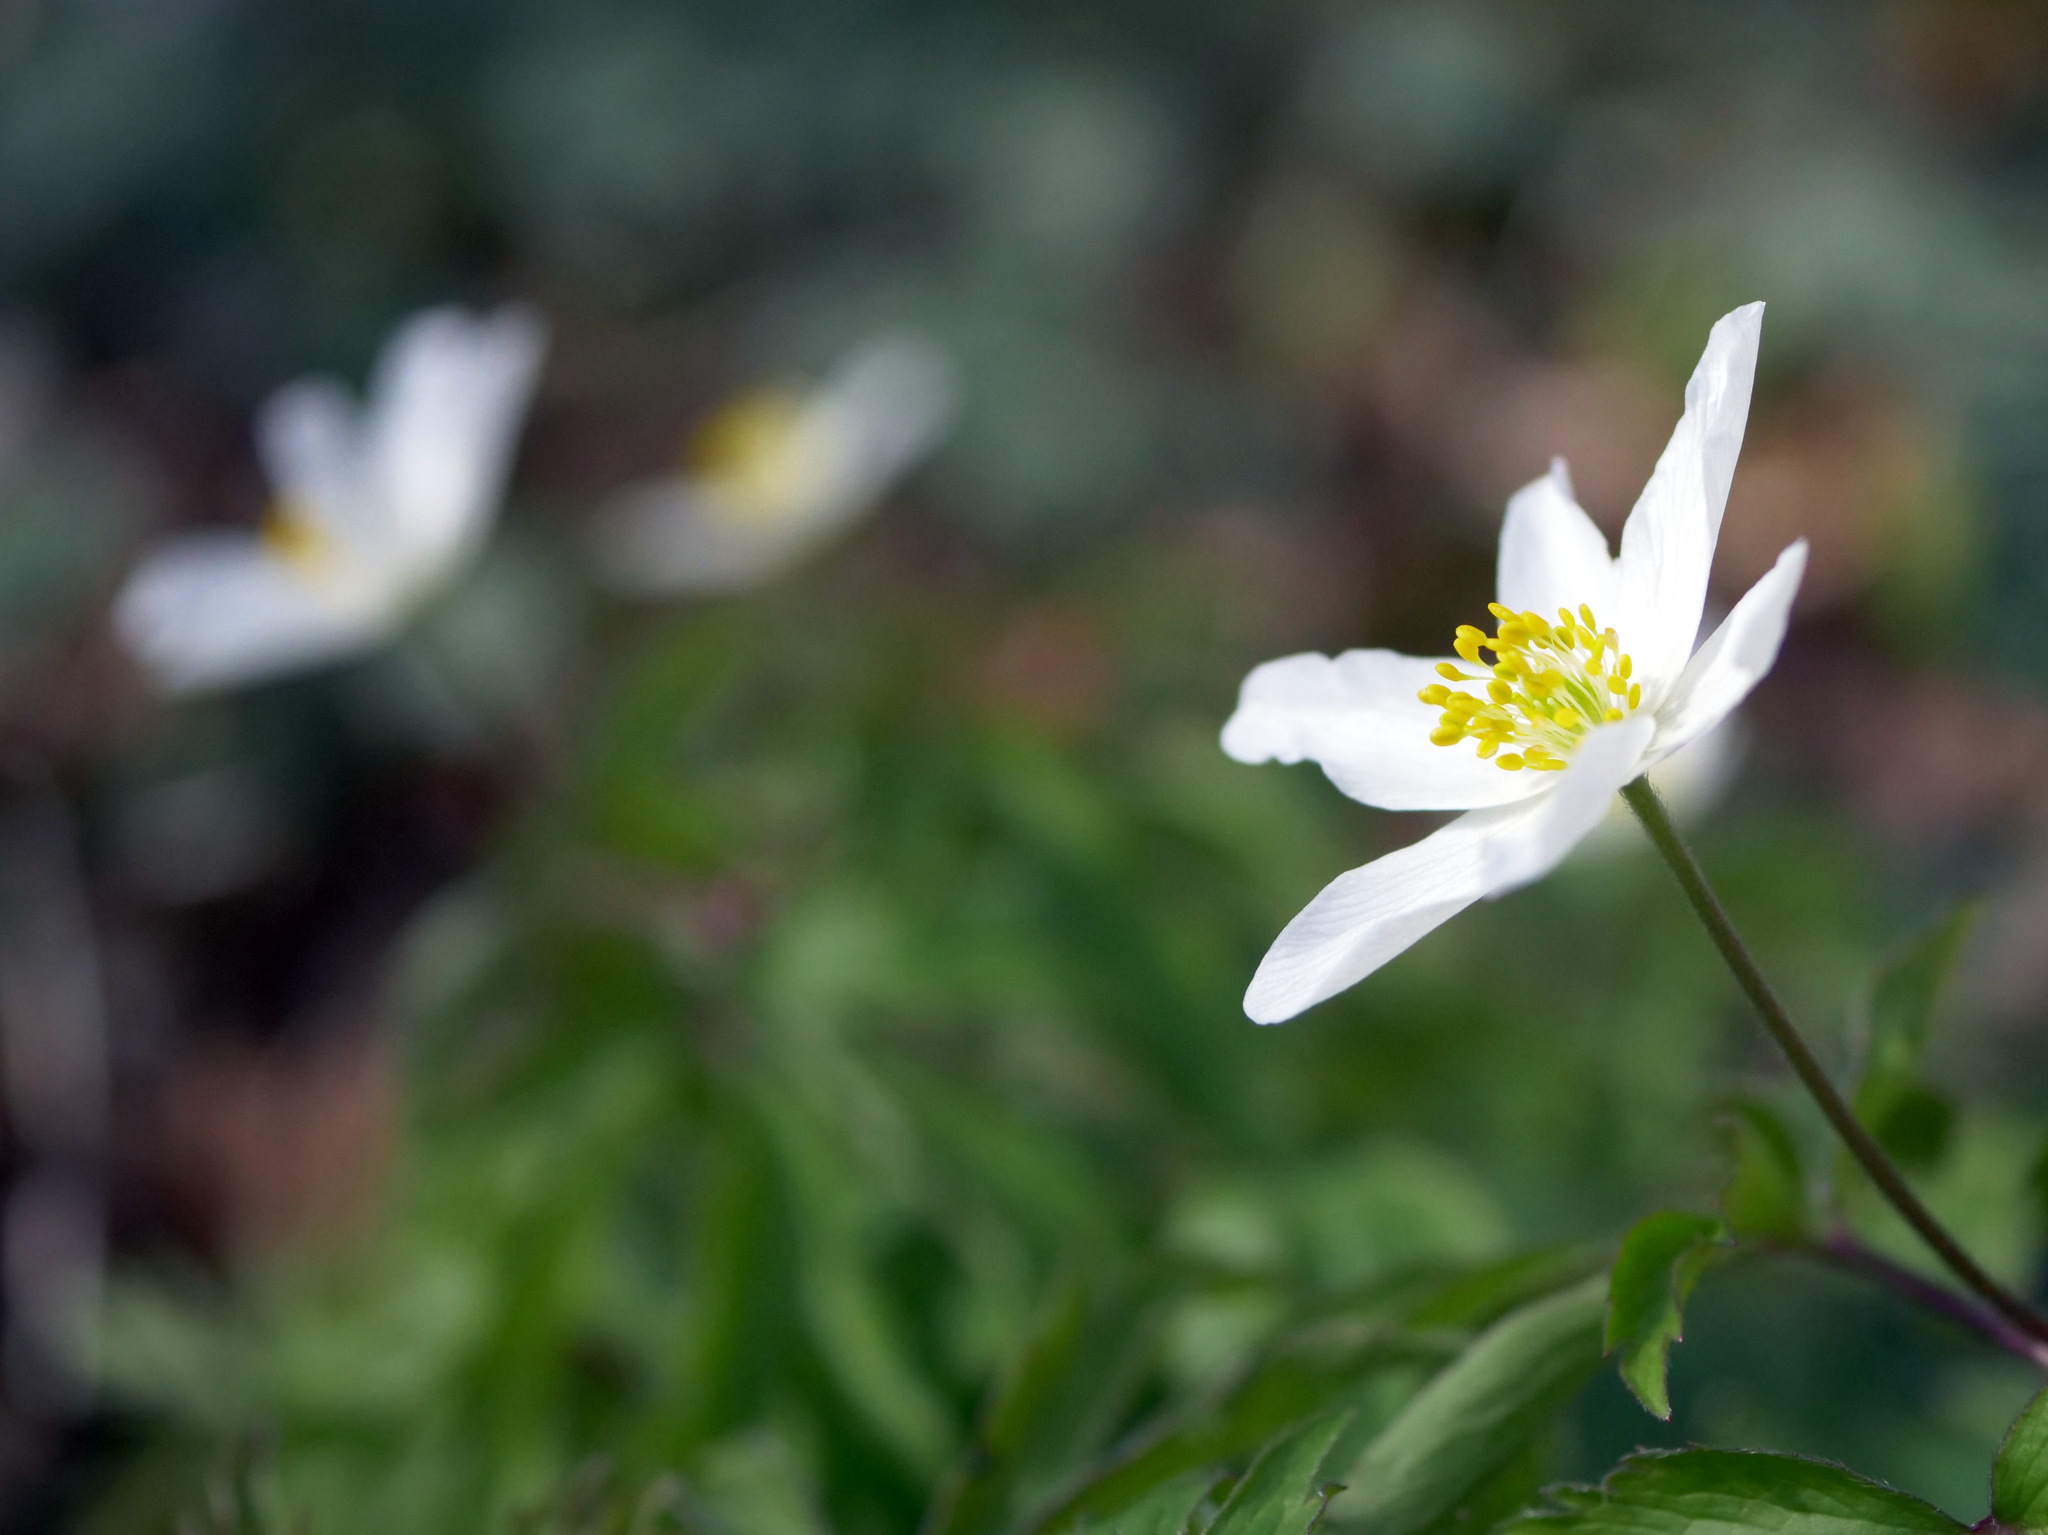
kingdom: Plantae
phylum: Tracheophyta
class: Magnoliopsida
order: Ranunculales
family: Ranunculaceae
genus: Anemone
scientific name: Anemone nemorosa
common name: Wood anemone
